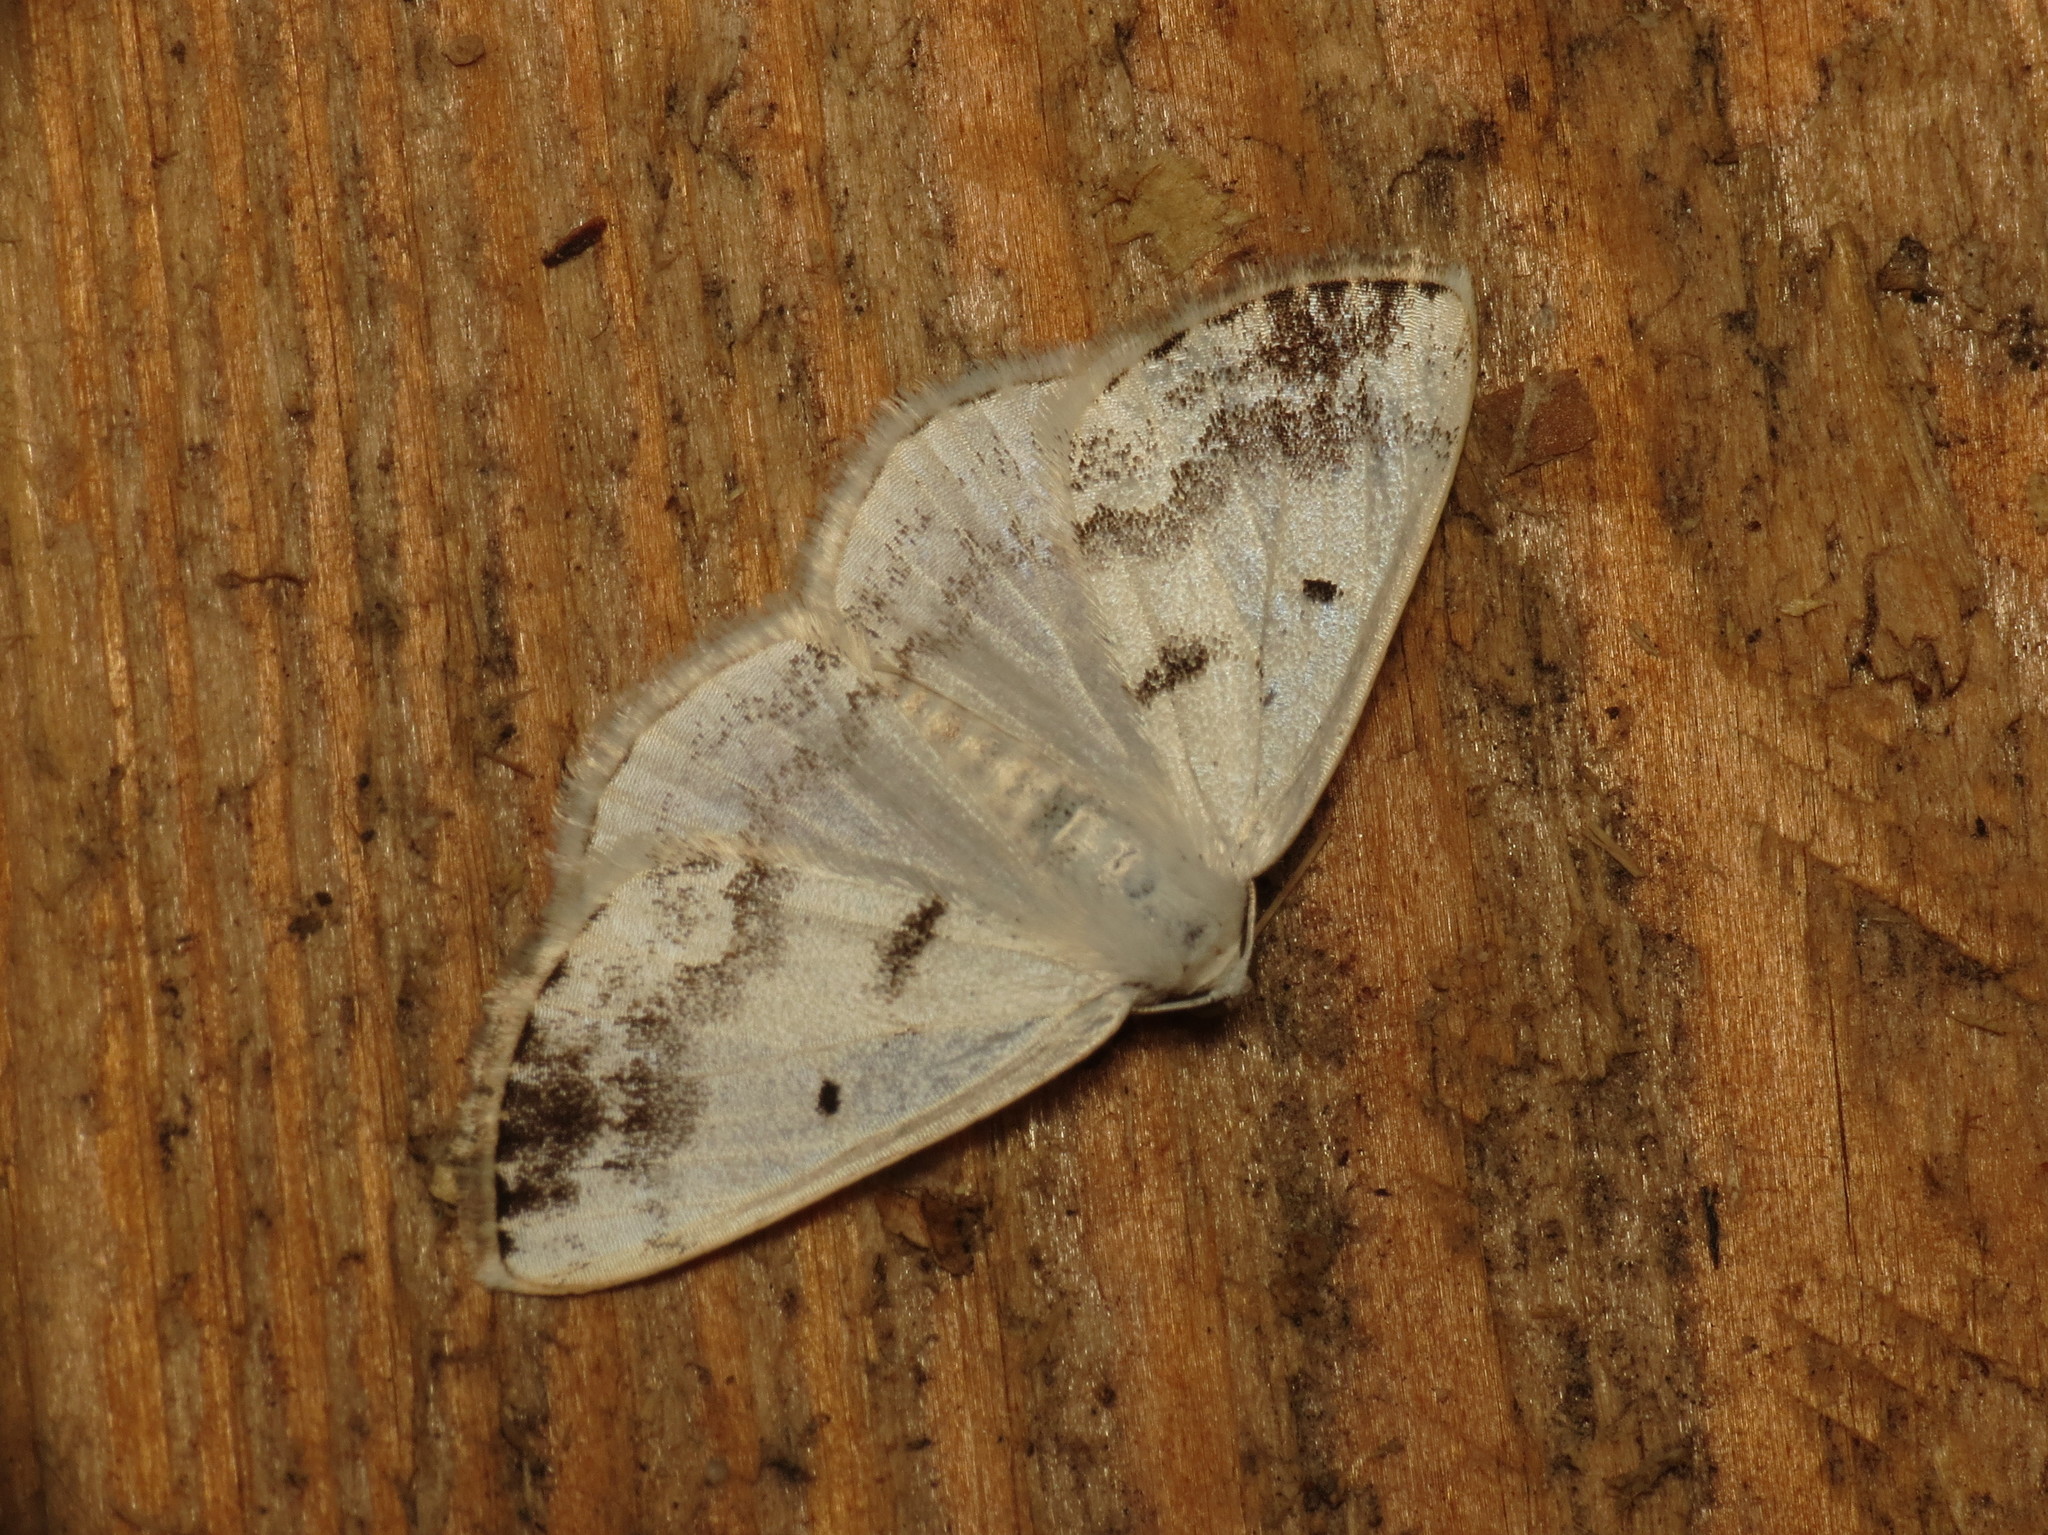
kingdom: Animalia
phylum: Arthropoda
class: Insecta
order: Lepidoptera
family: Geometridae
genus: Lomographa
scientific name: Lomographa temerata
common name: Clouded silver
